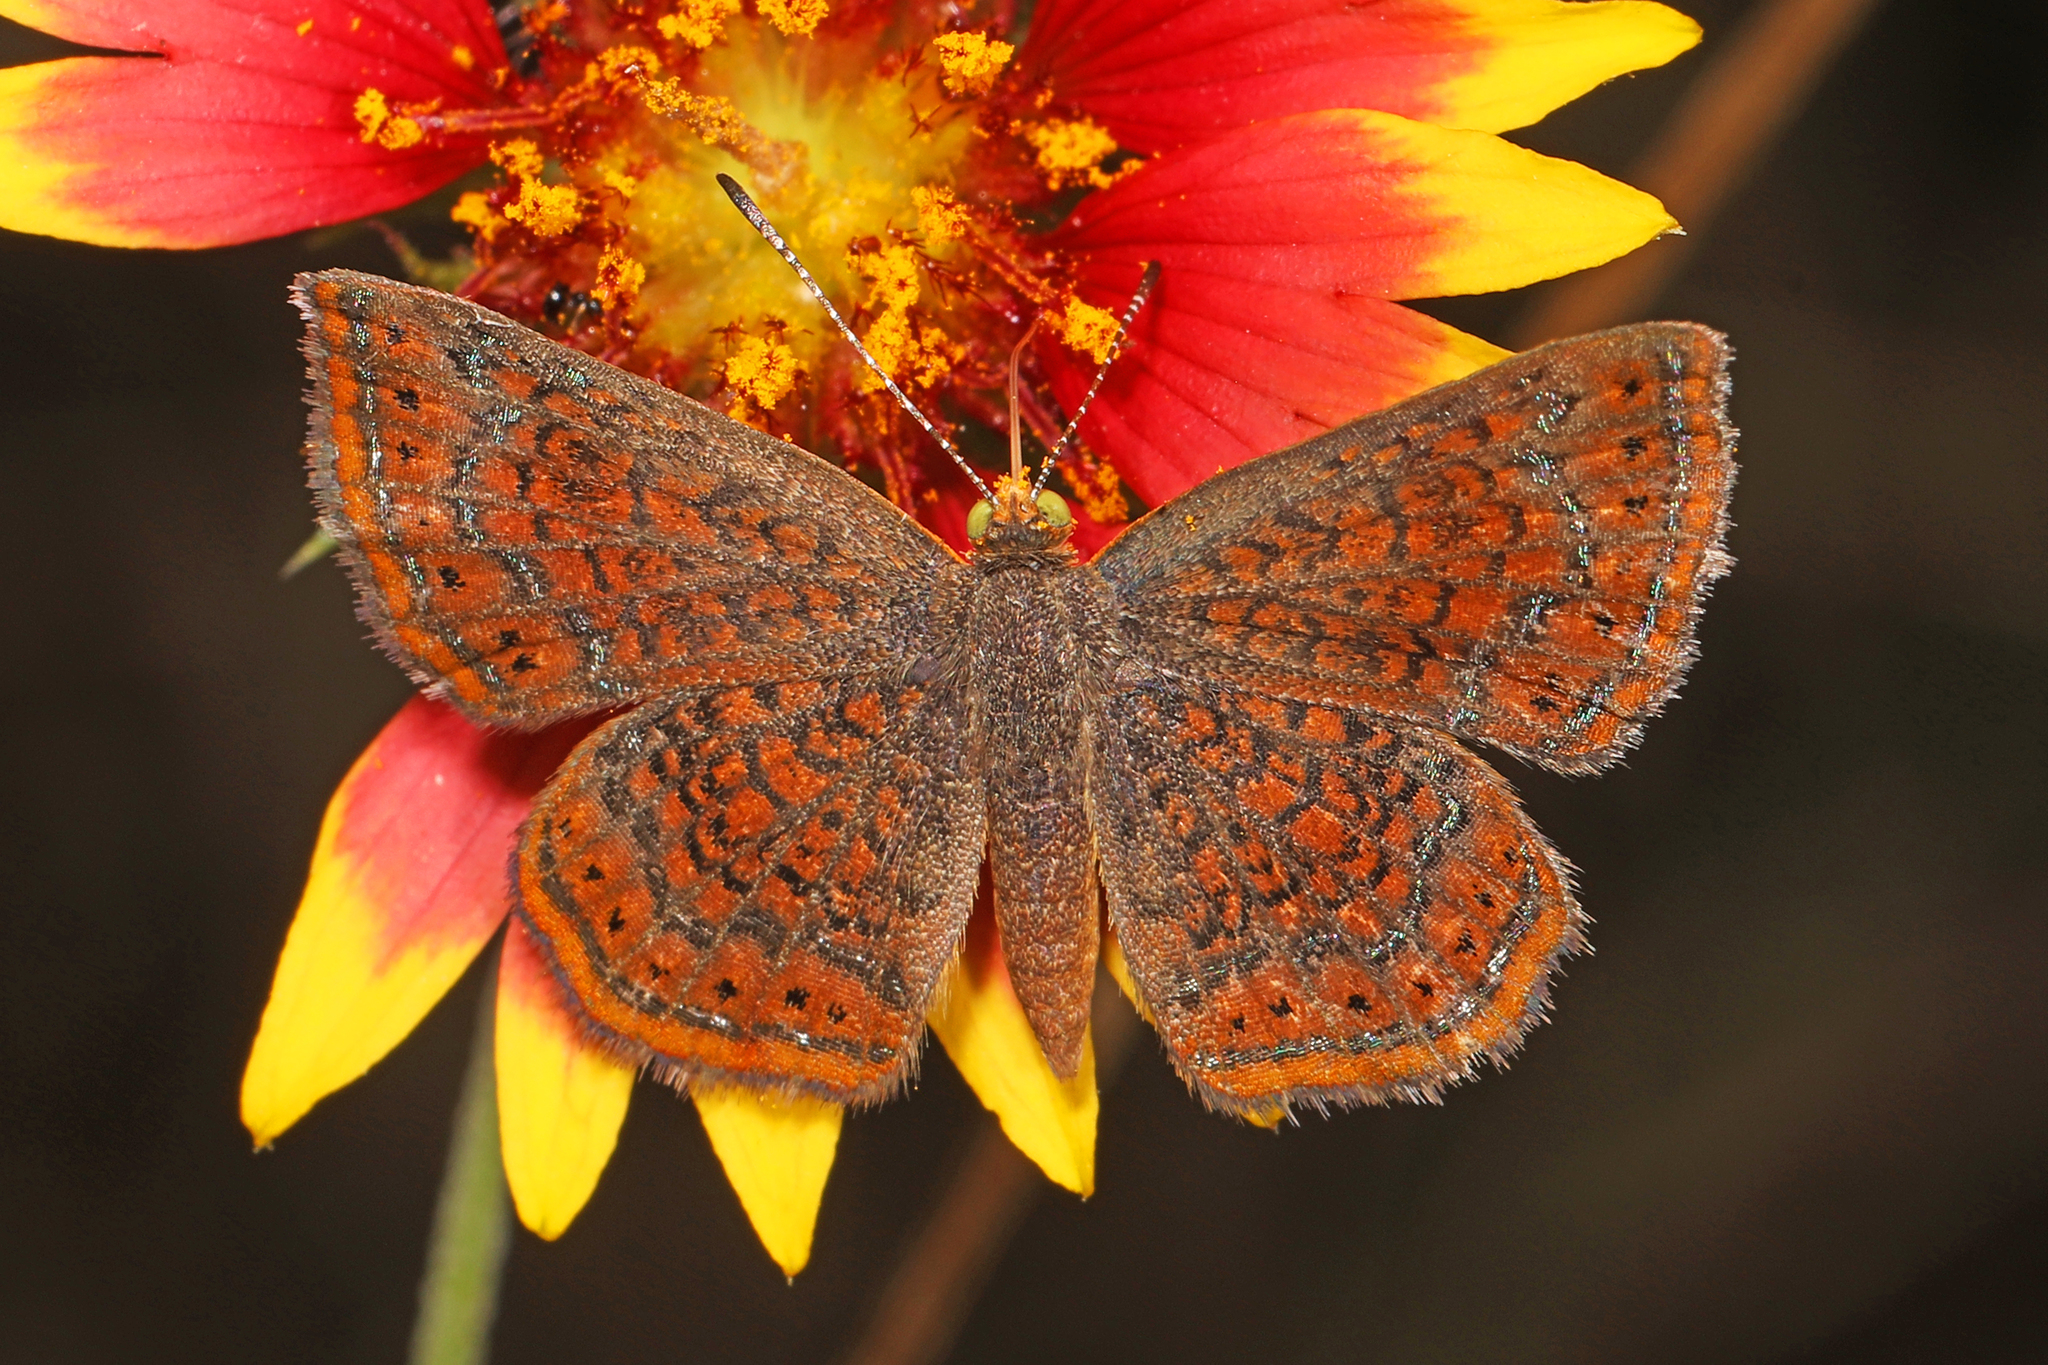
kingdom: Animalia
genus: Calephelis
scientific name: Calephelis perditalis
